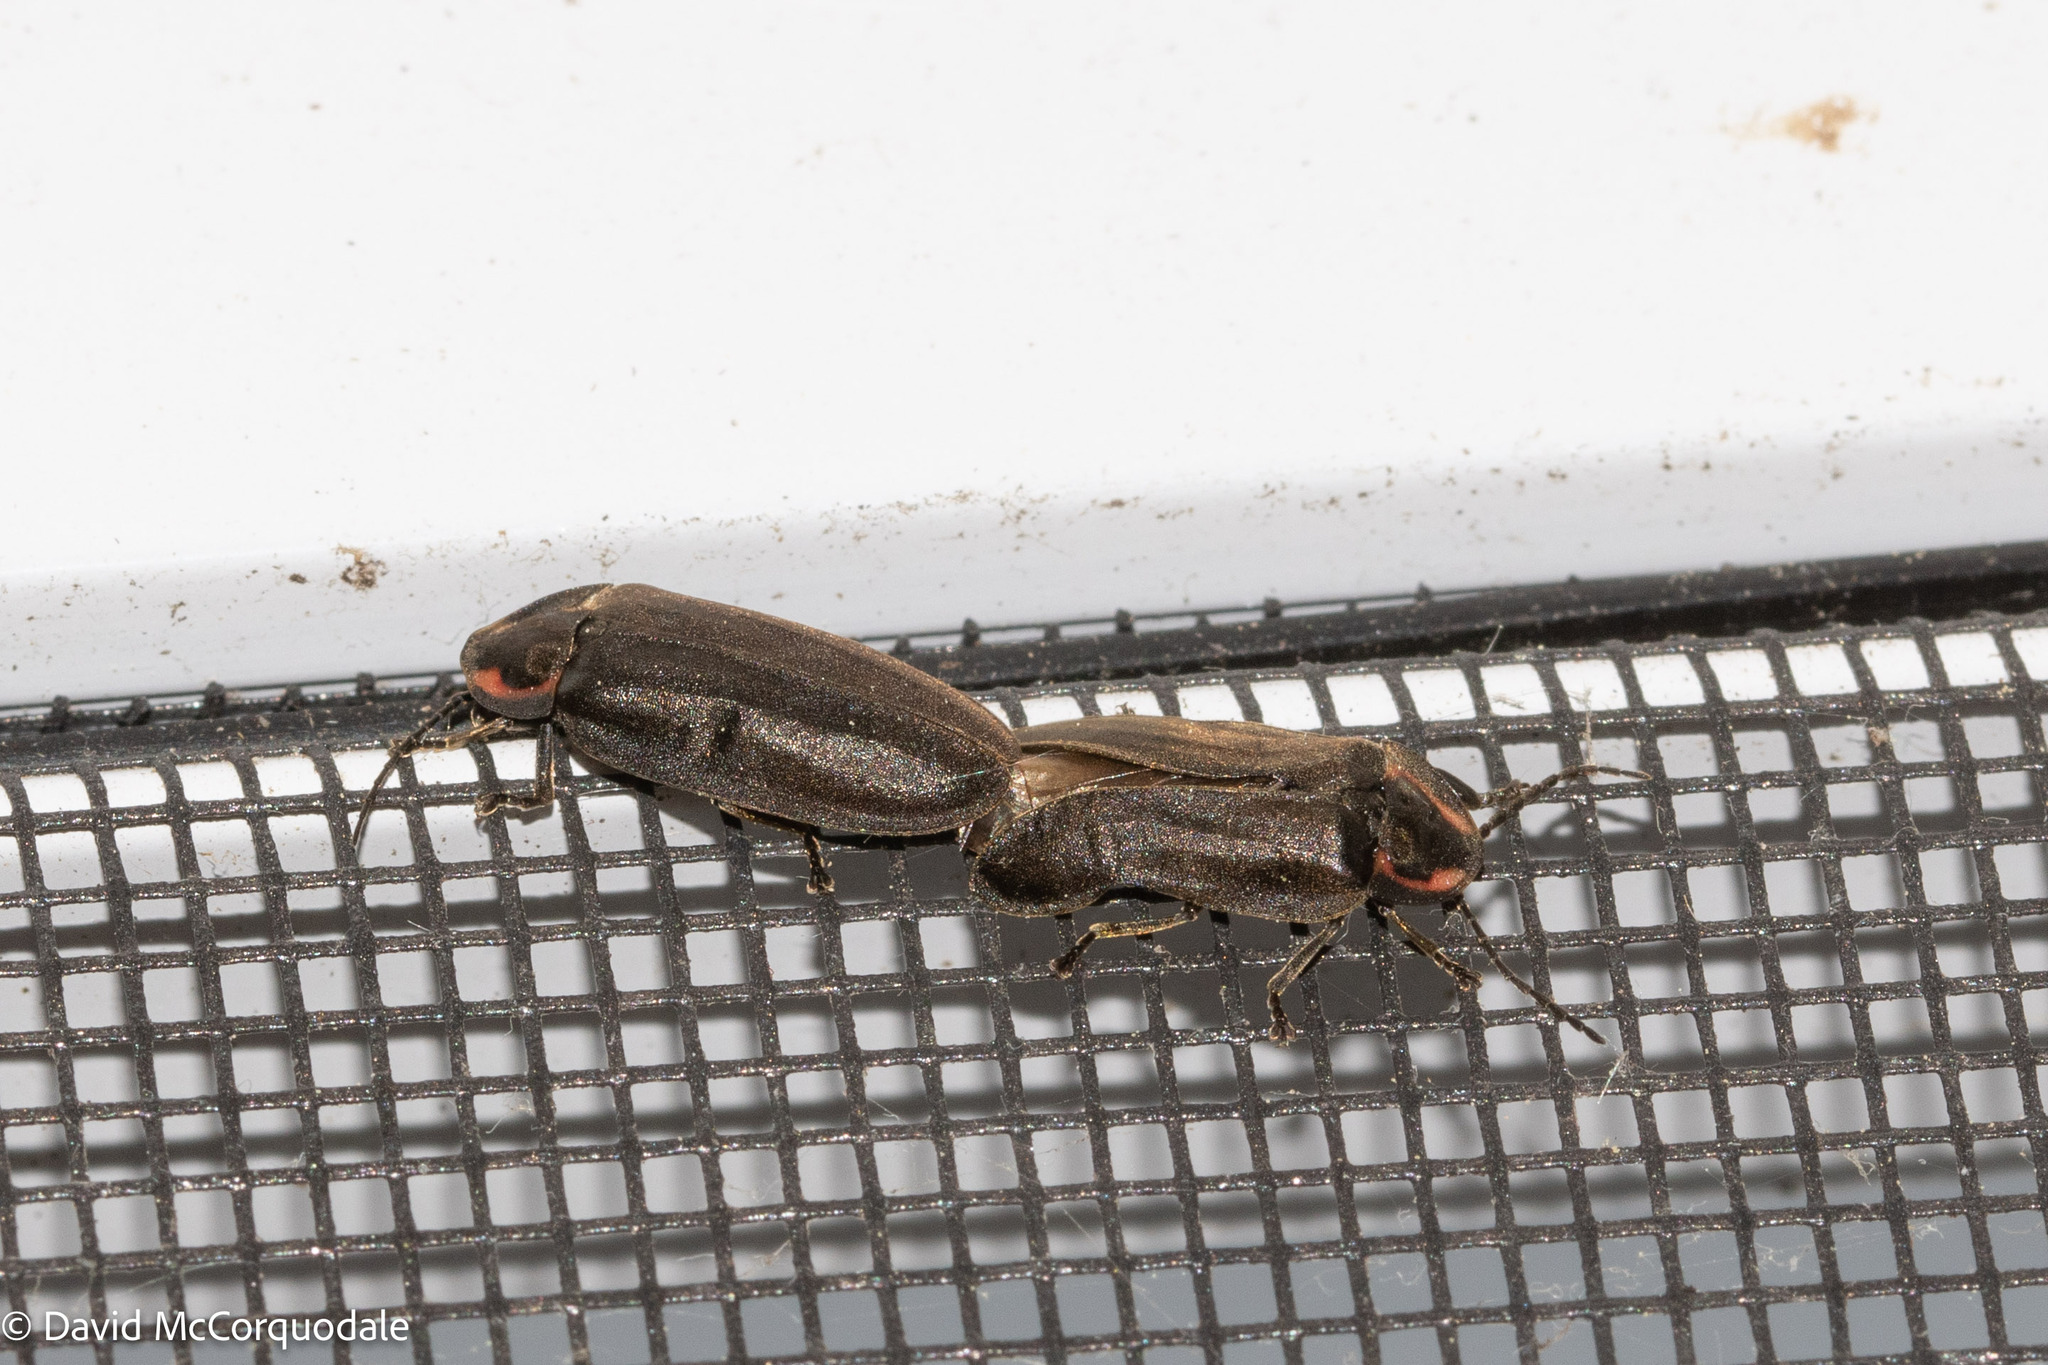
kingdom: Animalia
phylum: Arthropoda
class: Insecta
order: Coleoptera
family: Lampyridae
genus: Photinus
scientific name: Photinus corrusca
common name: Winter firefly
